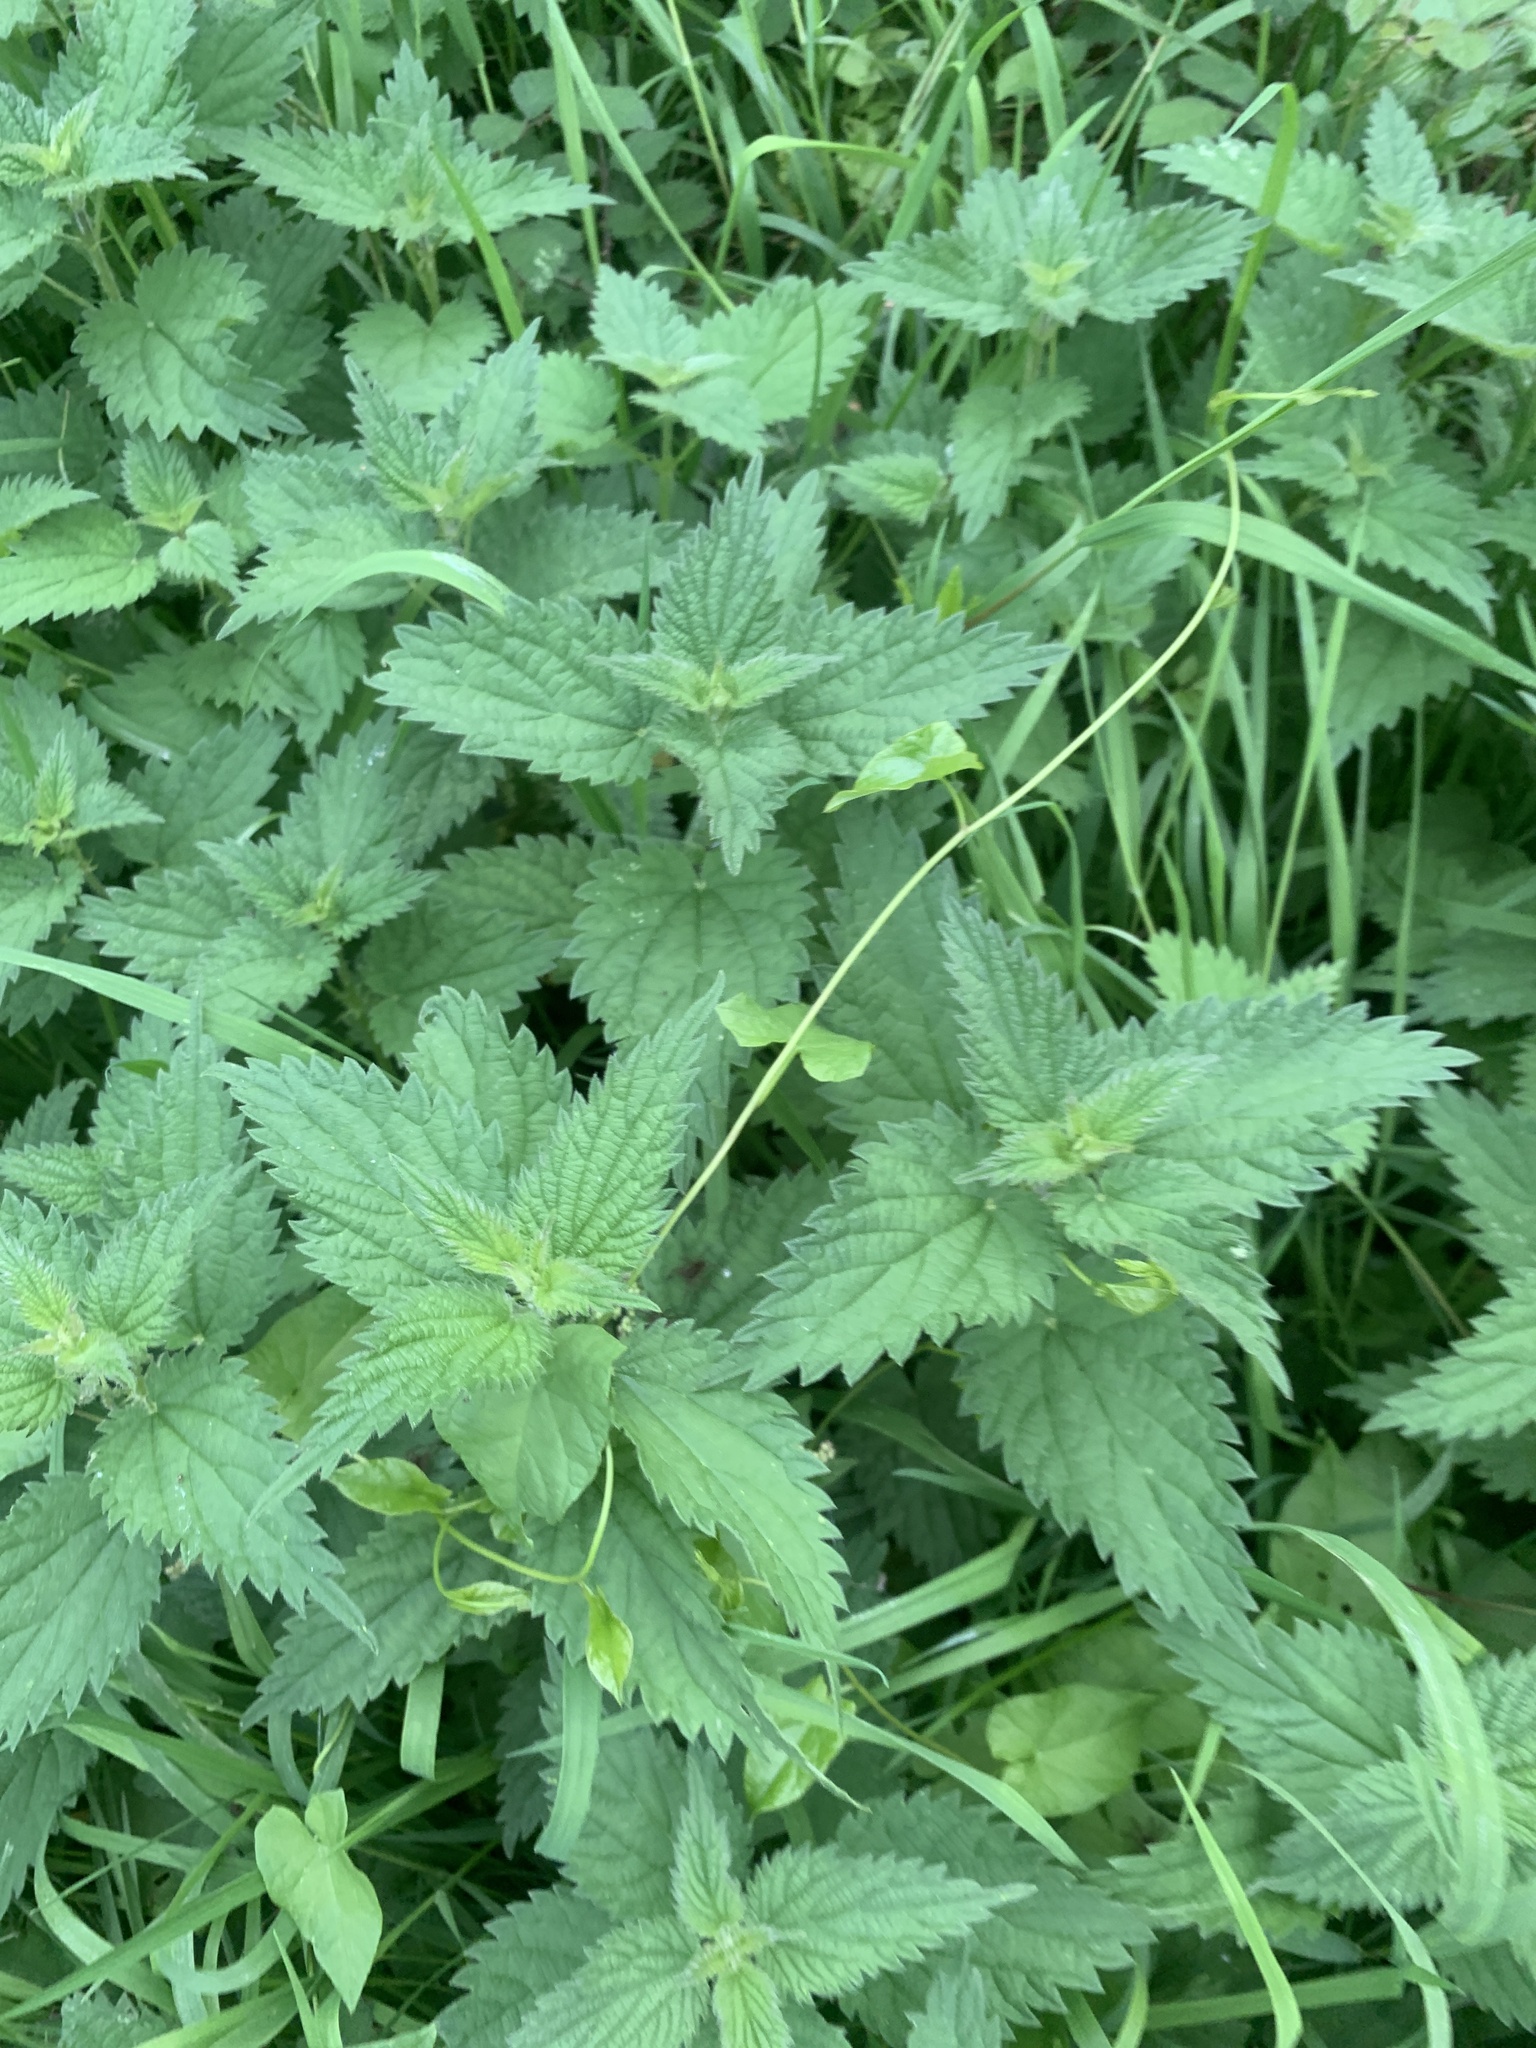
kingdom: Plantae
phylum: Tracheophyta
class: Magnoliopsida
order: Rosales
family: Urticaceae
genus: Urtica
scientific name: Urtica dioica
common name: Common nettle
